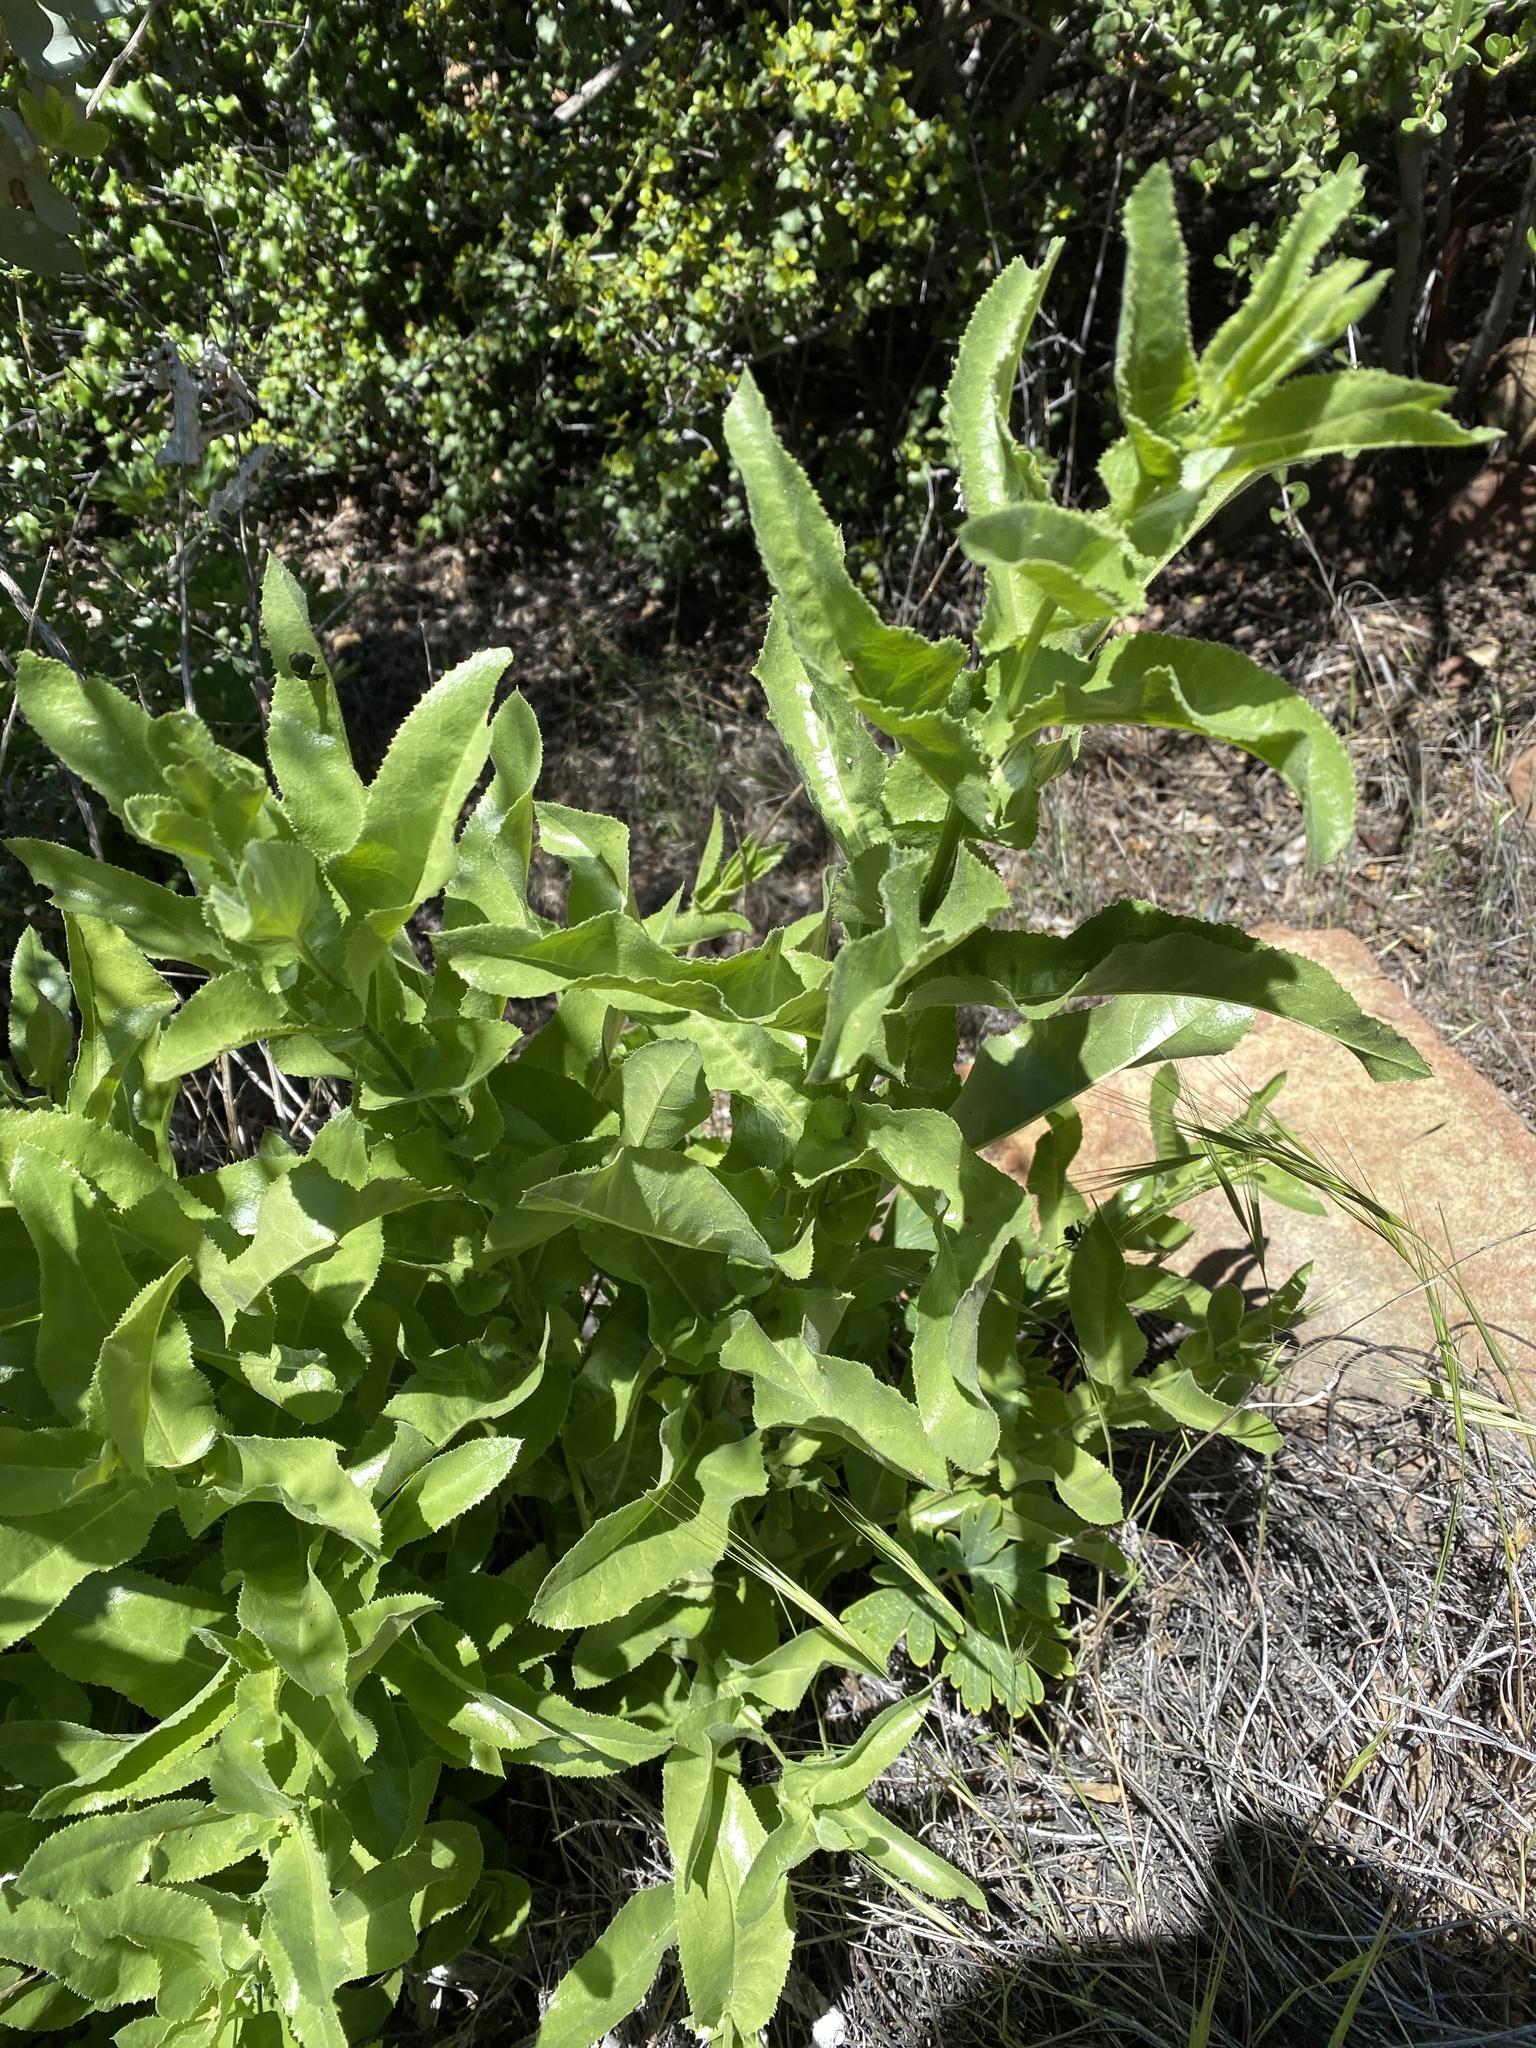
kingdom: Plantae
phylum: Tracheophyta
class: Magnoliopsida
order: Asterales
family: Asteraceae
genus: Acourtia
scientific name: Acourtia microcephala
